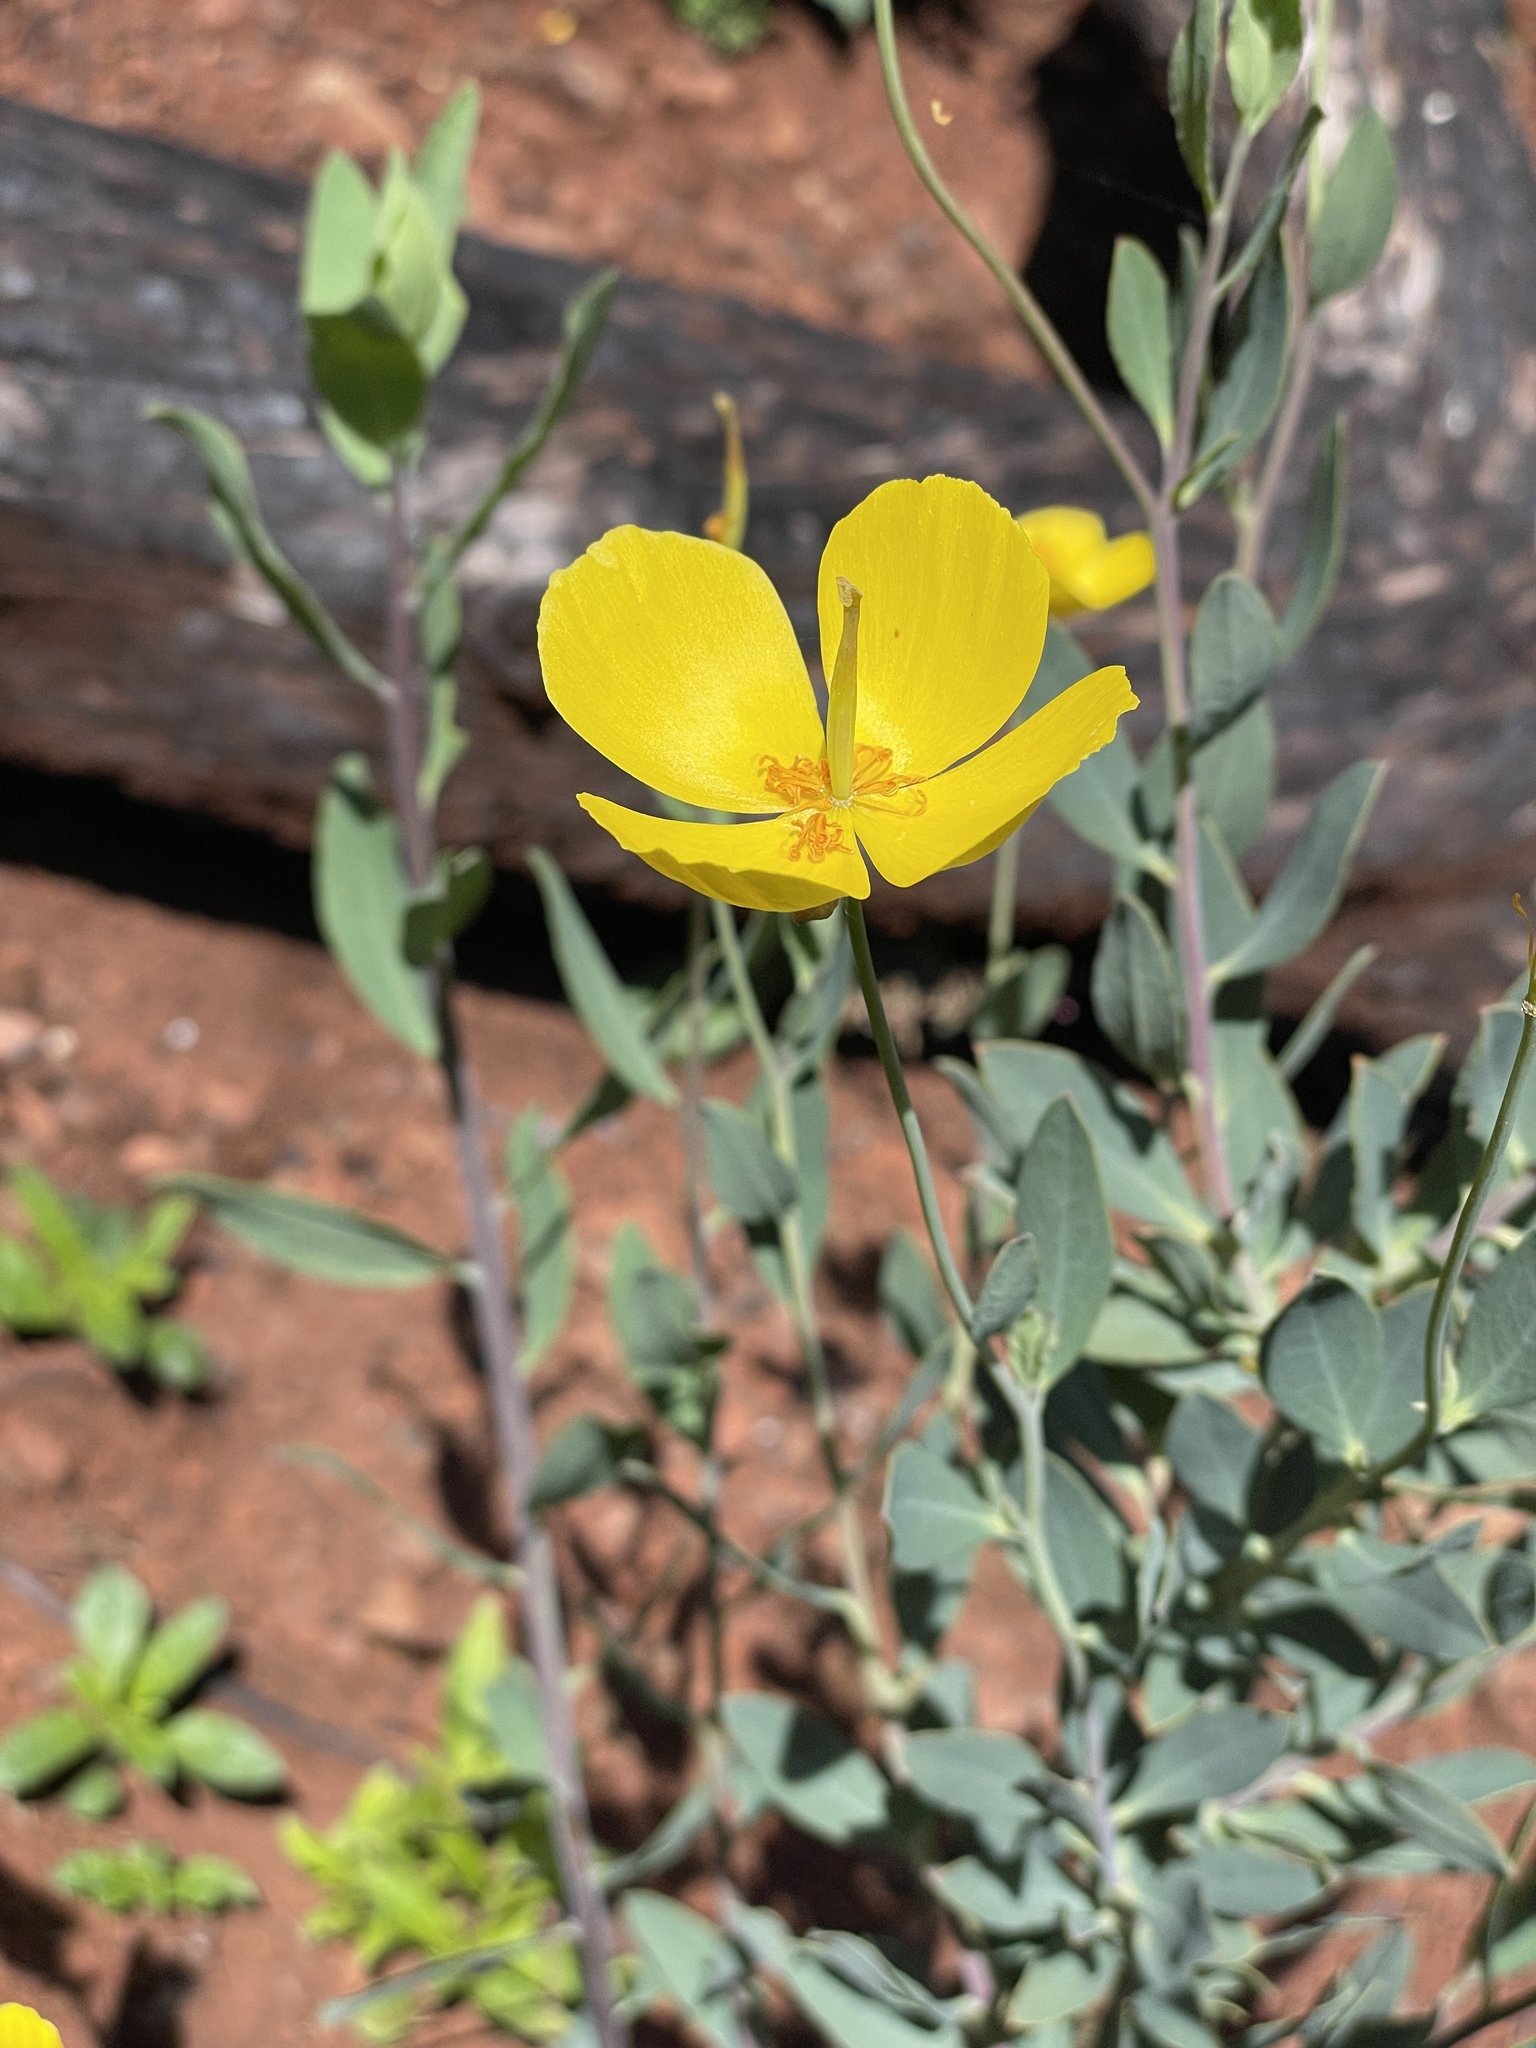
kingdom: Plantae
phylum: Tracheophyta
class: Magnoliopsida
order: Ranunculales
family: Papaveraceae
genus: Dendromecon
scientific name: Dendromecon rigida
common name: Tree poppy
